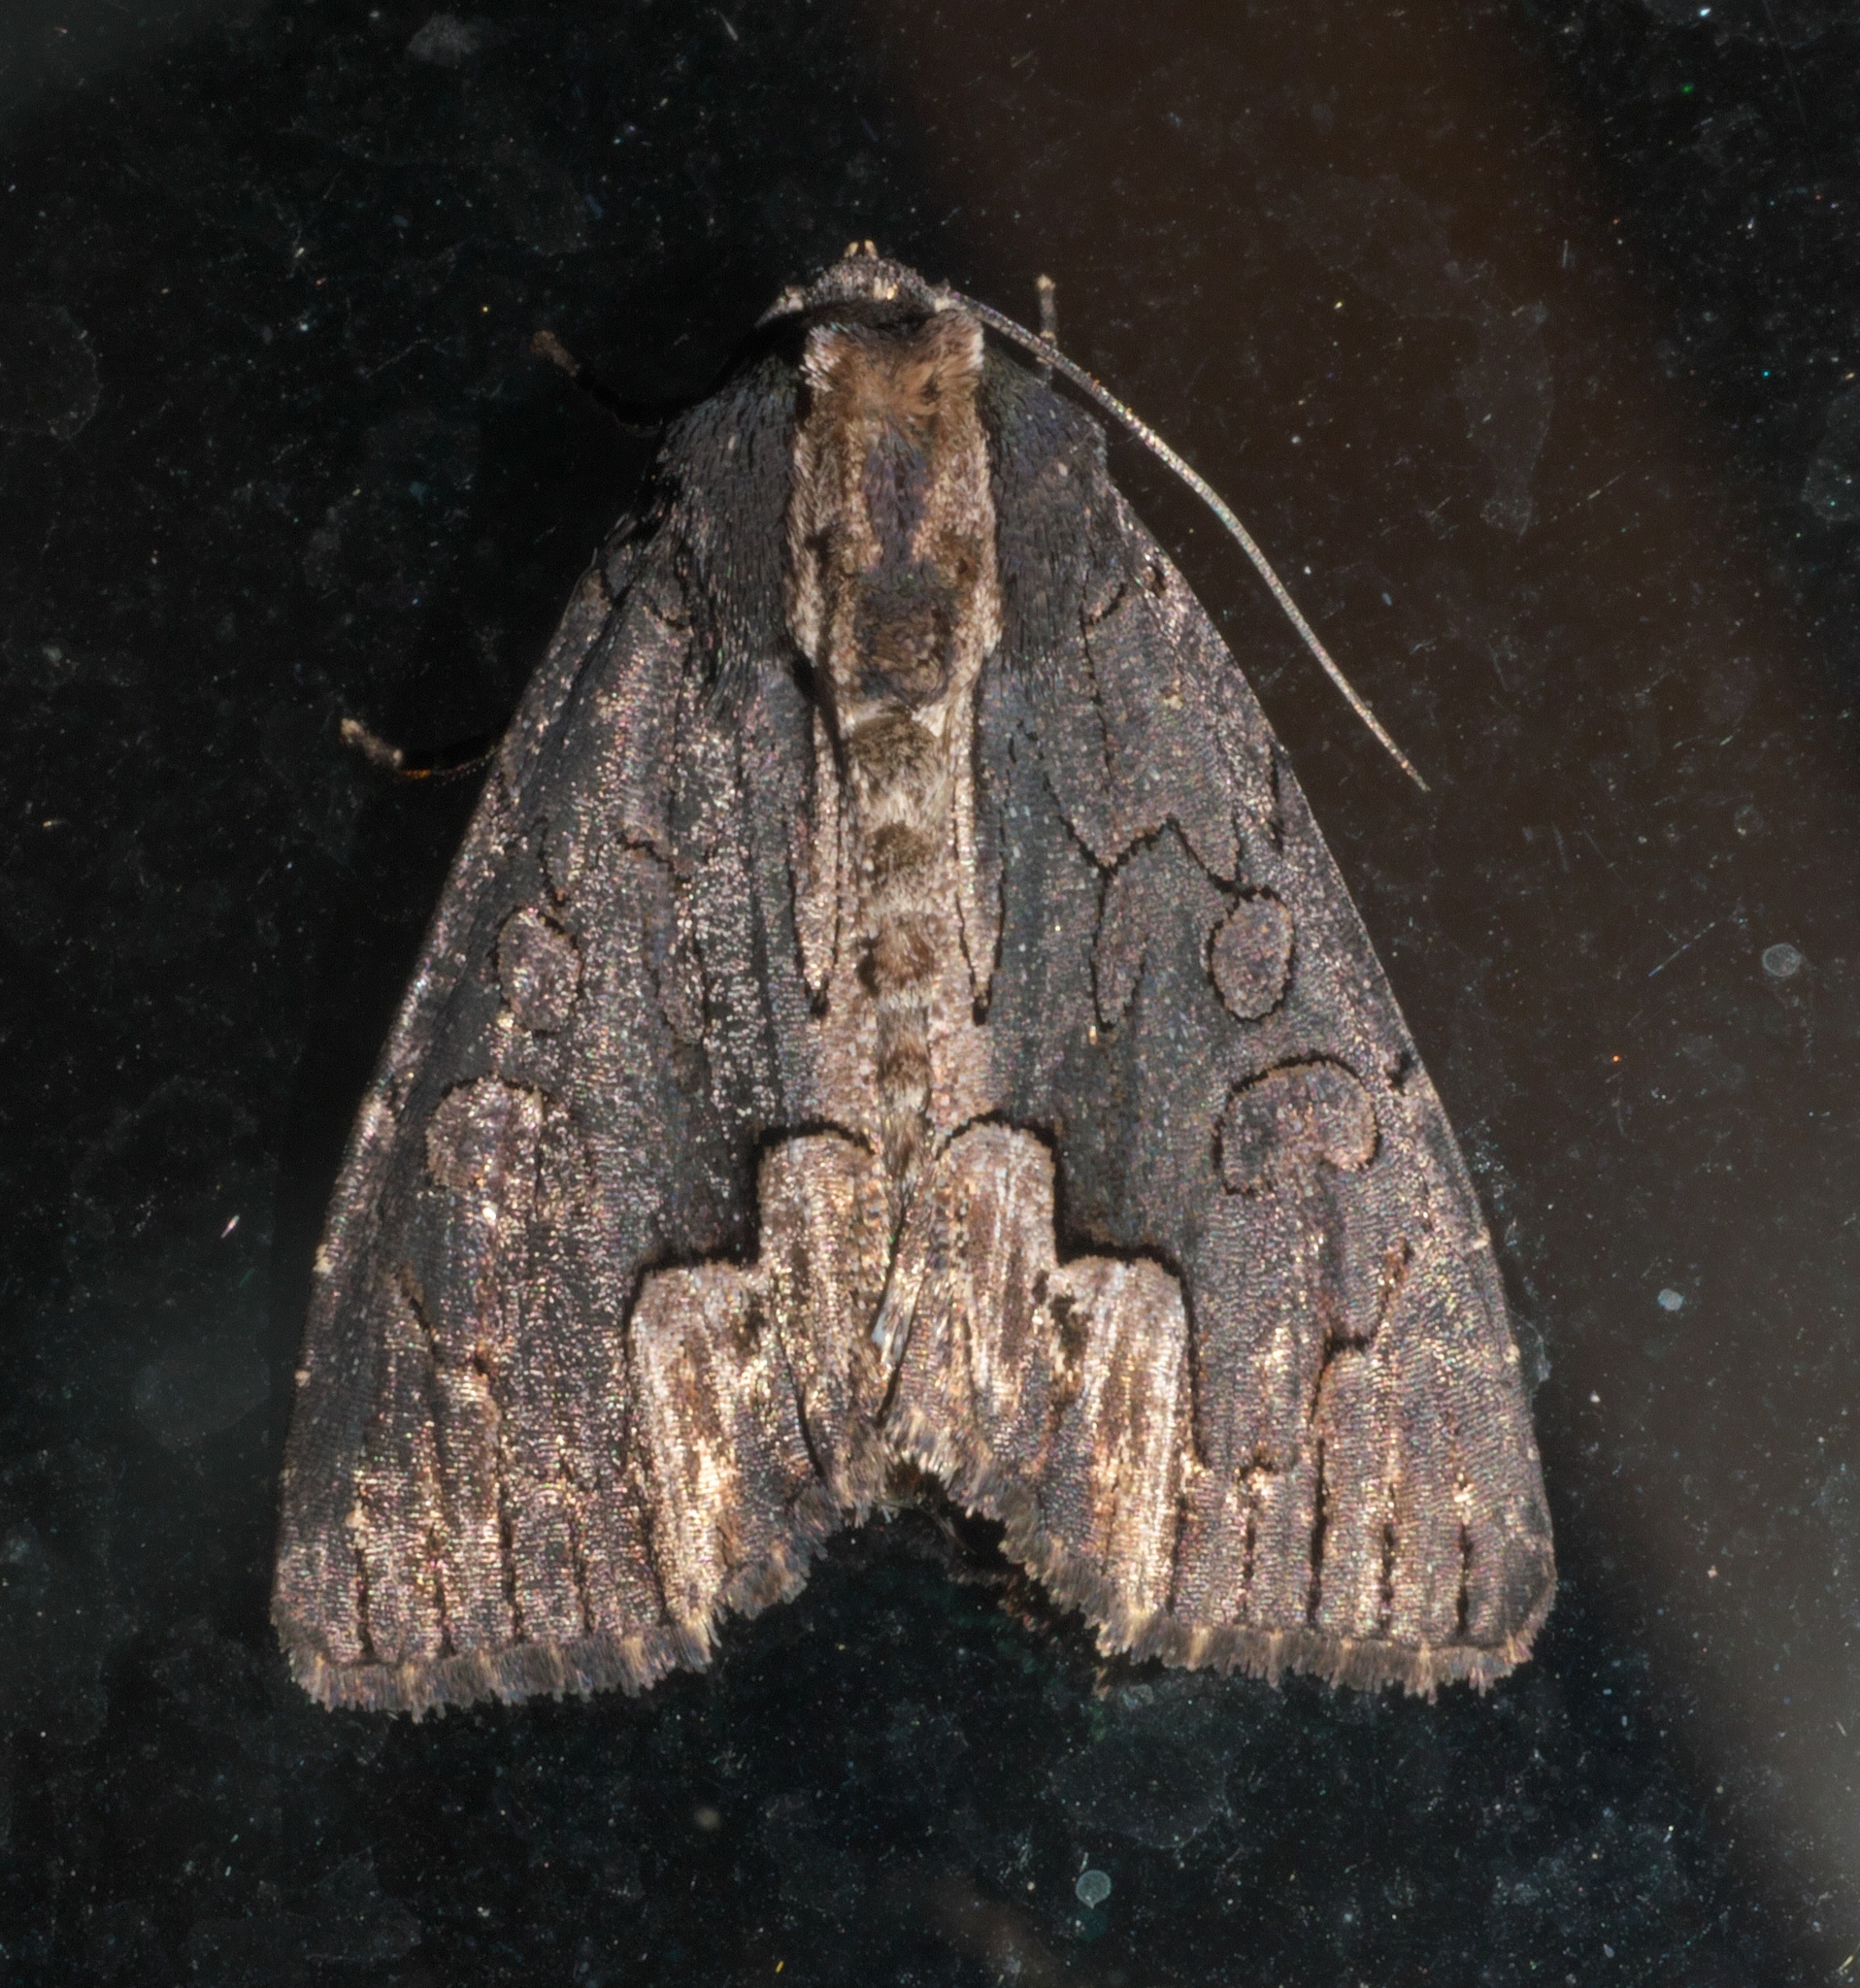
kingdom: Animalia
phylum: Arthropoda
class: Insecta
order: Lepidoptera
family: Noctuidae
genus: Dypterygia
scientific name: Dypterygia rozmani
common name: American bird's-wing
